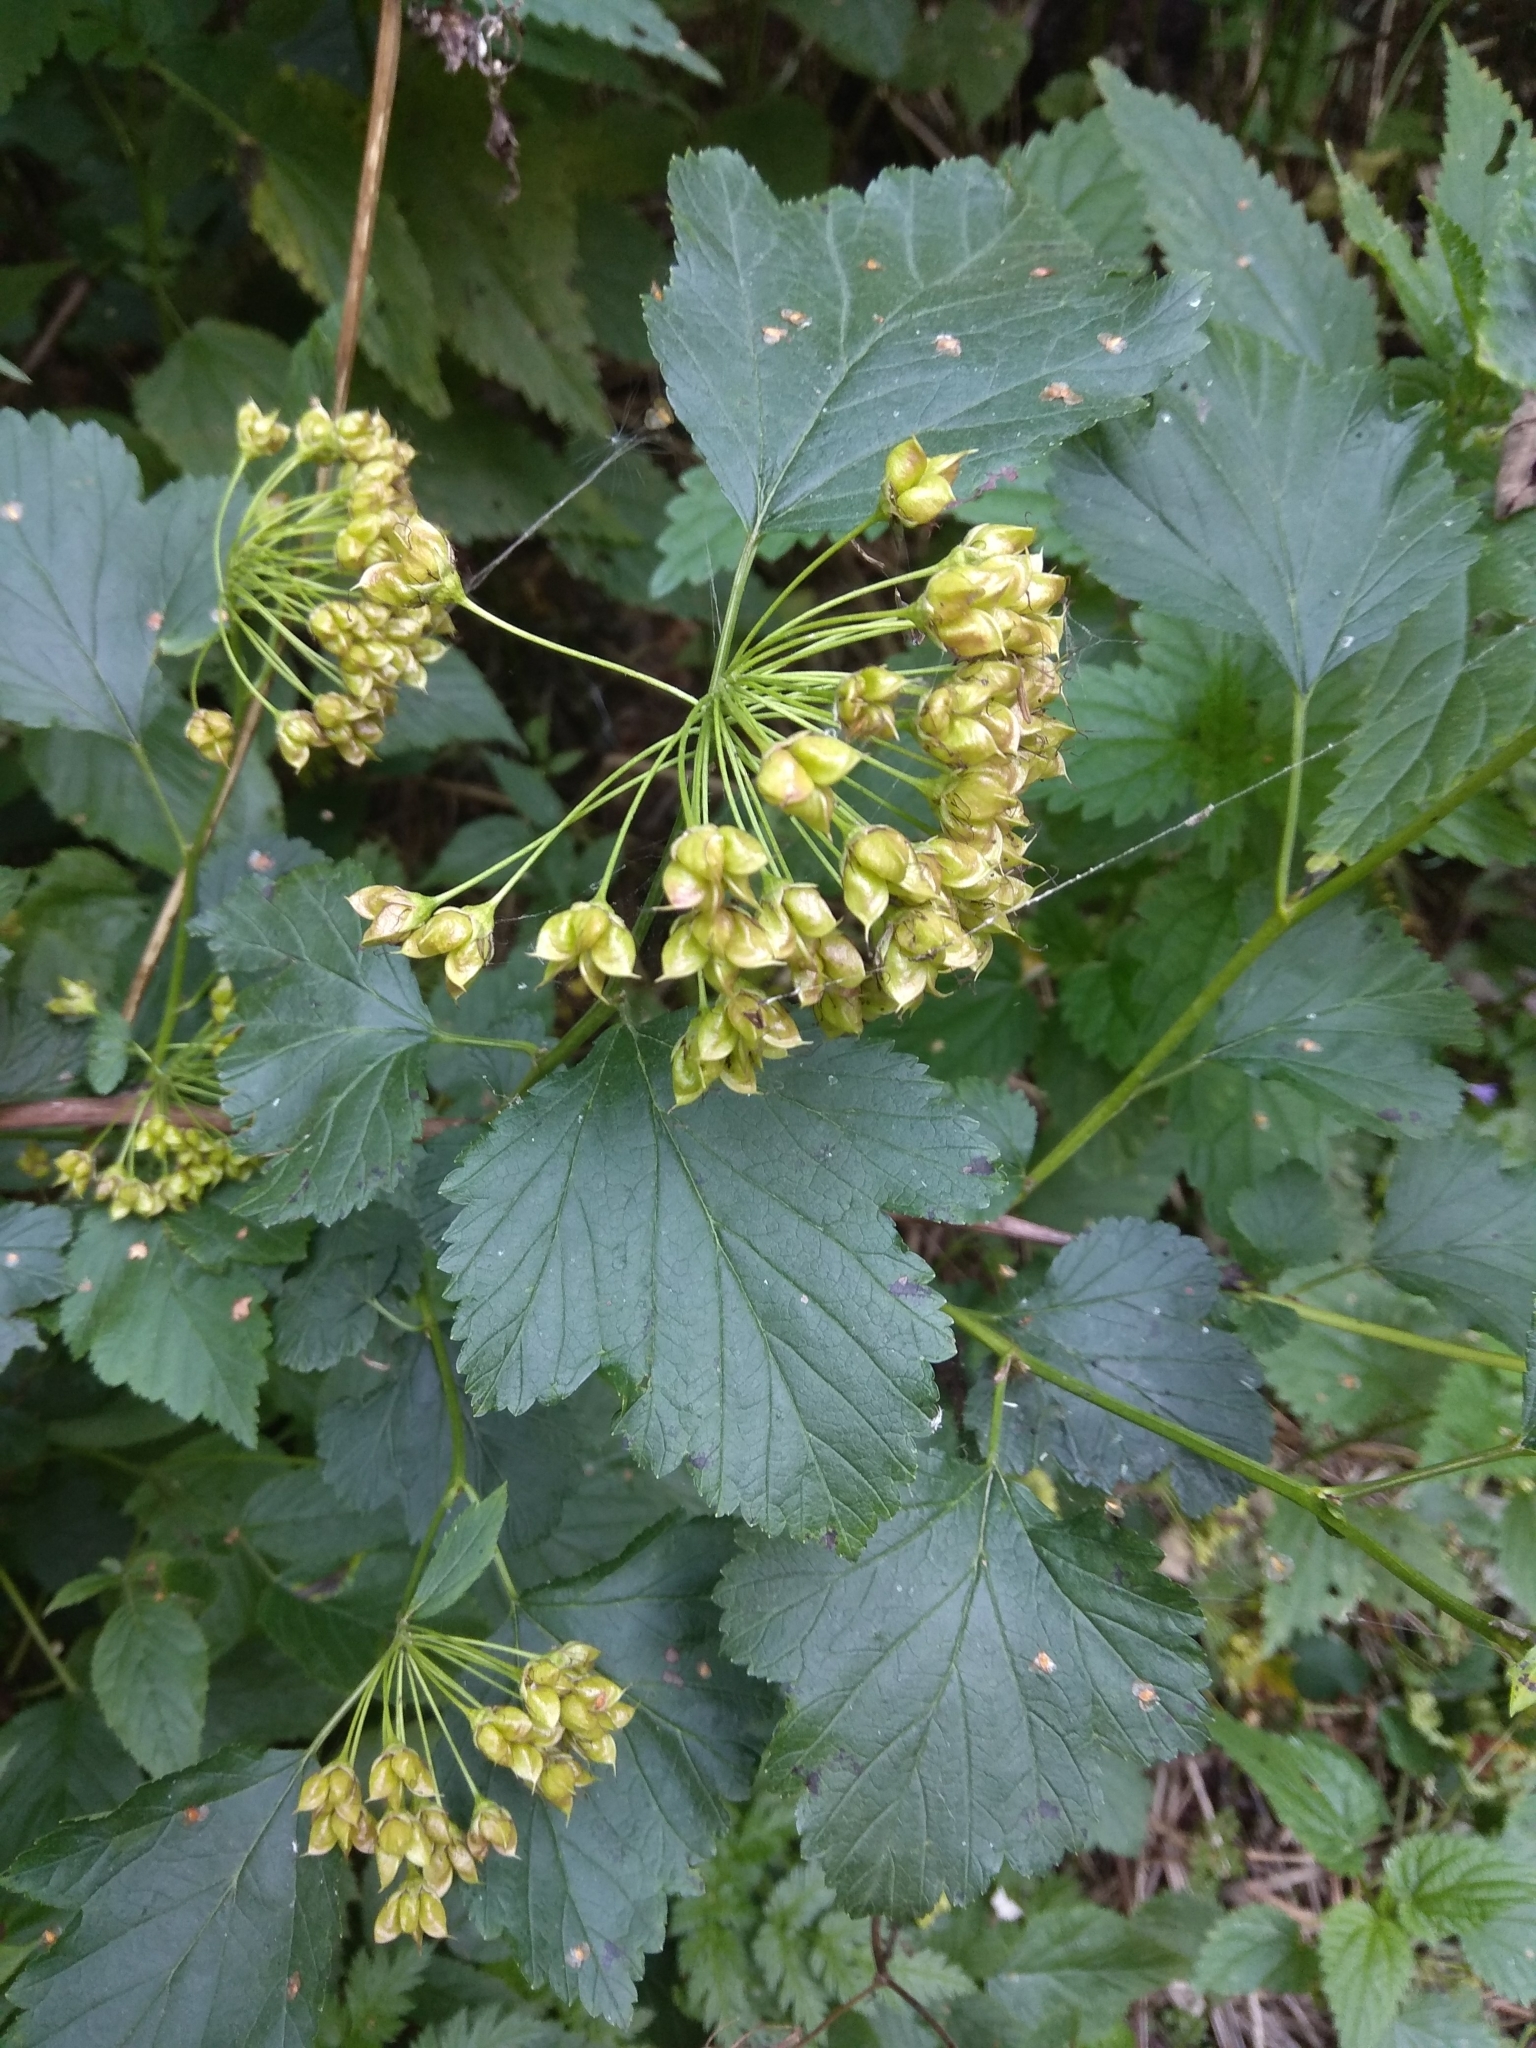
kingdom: Plantae
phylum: Tracheophyta
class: Magnoliopsida
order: Rosales
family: Rosaceae
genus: Physocarpus
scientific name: Physocarpus opulifolius
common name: Ninebark
